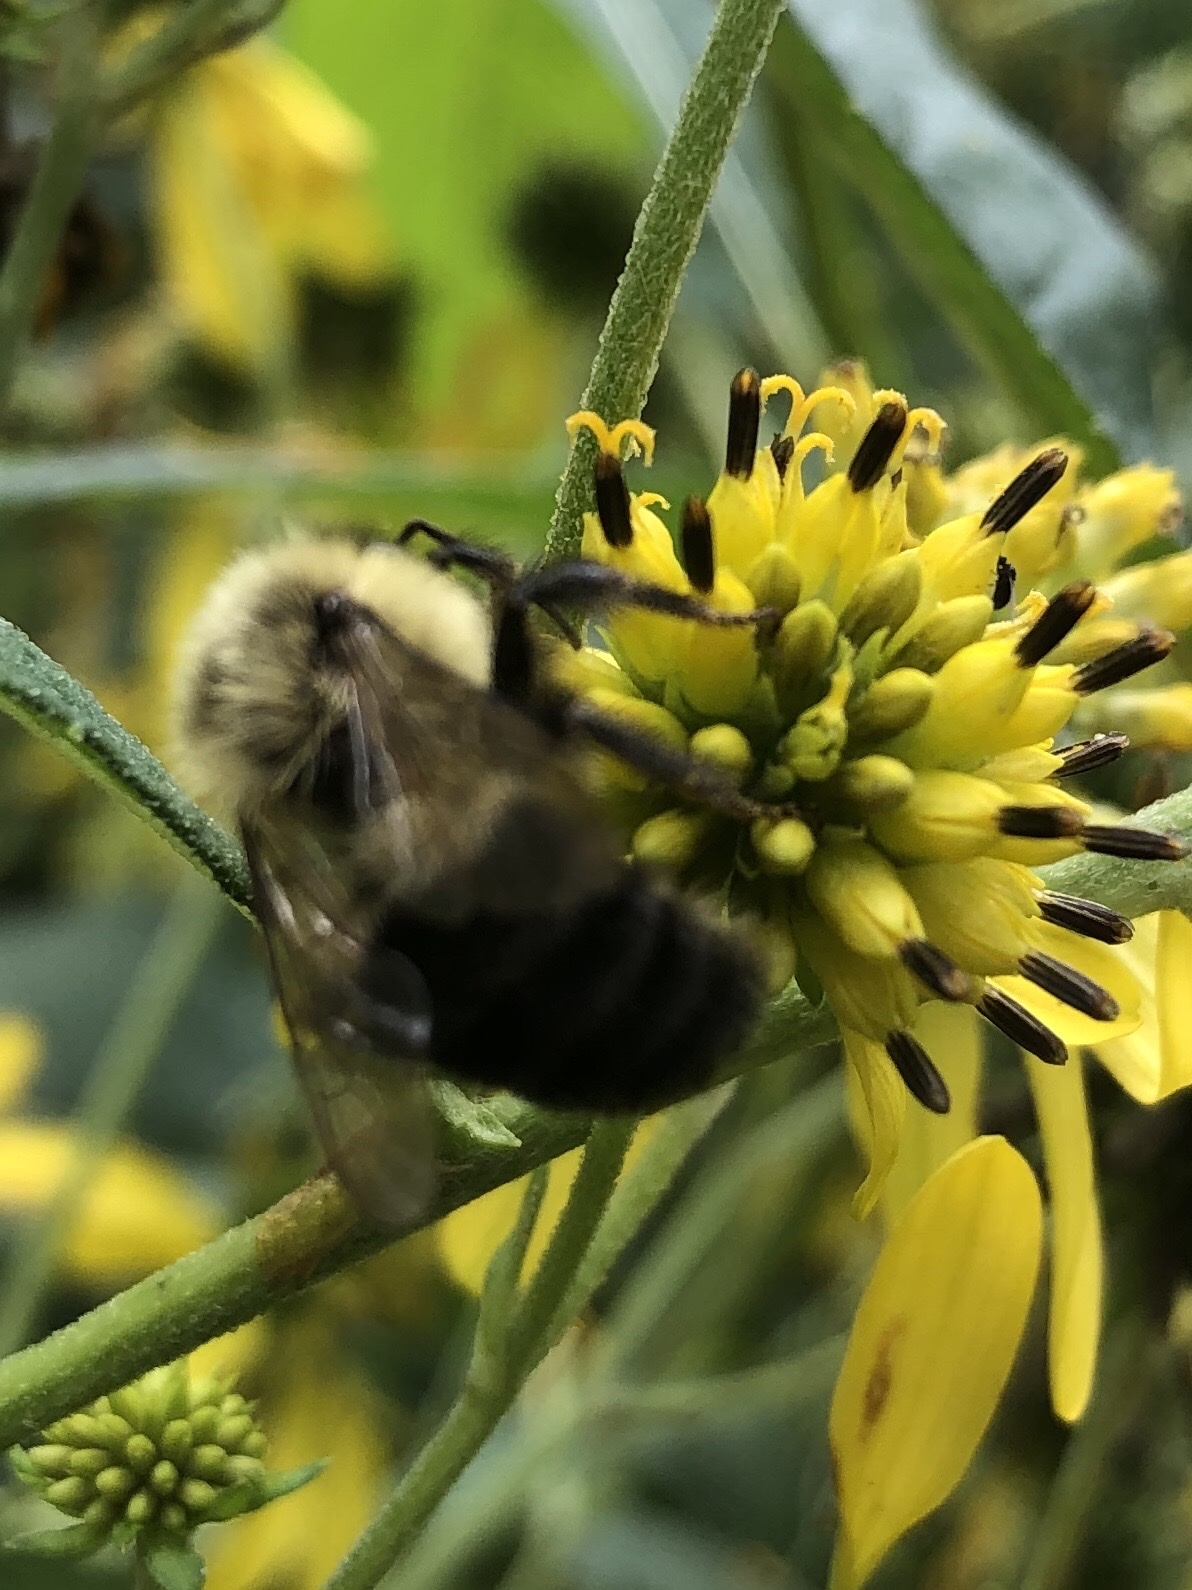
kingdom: Animalia
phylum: Arthropoda
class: Insecta
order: Hymenoptera
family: Apidae
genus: Bombus
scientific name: Bombus impatiens
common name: Common eastern bumble bee
